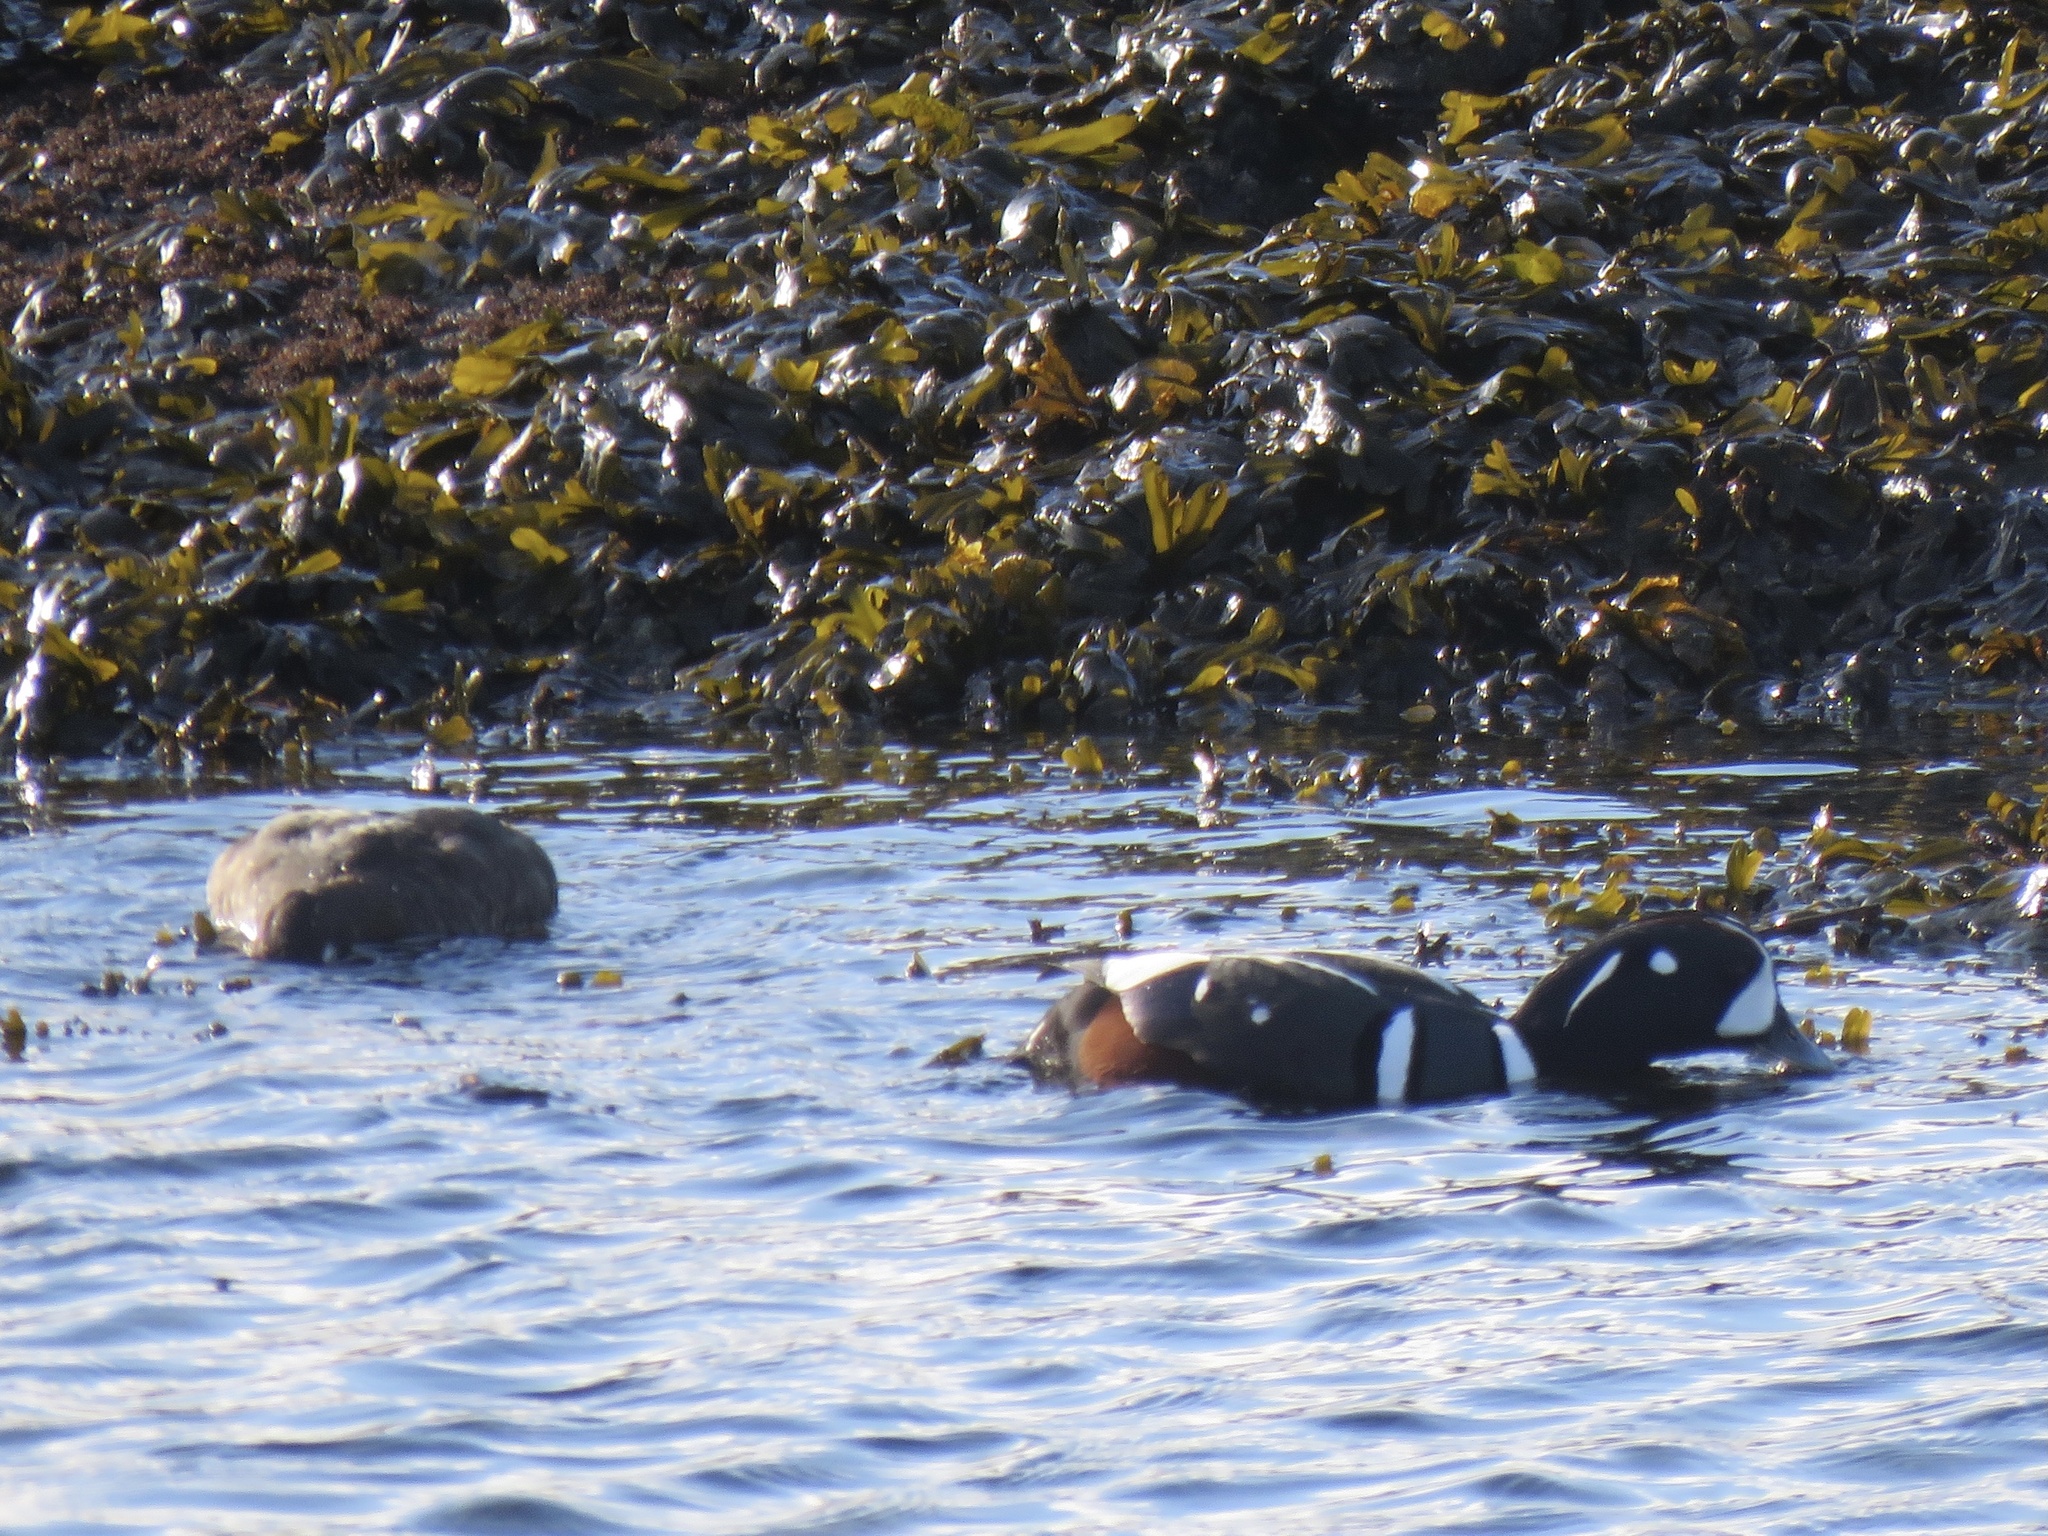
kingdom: Animalia
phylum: Chordata
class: Aves
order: Anseriformes
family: Anatidae
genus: Histrionicus
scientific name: Histrionicus histrionicus
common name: Harlequin duck
